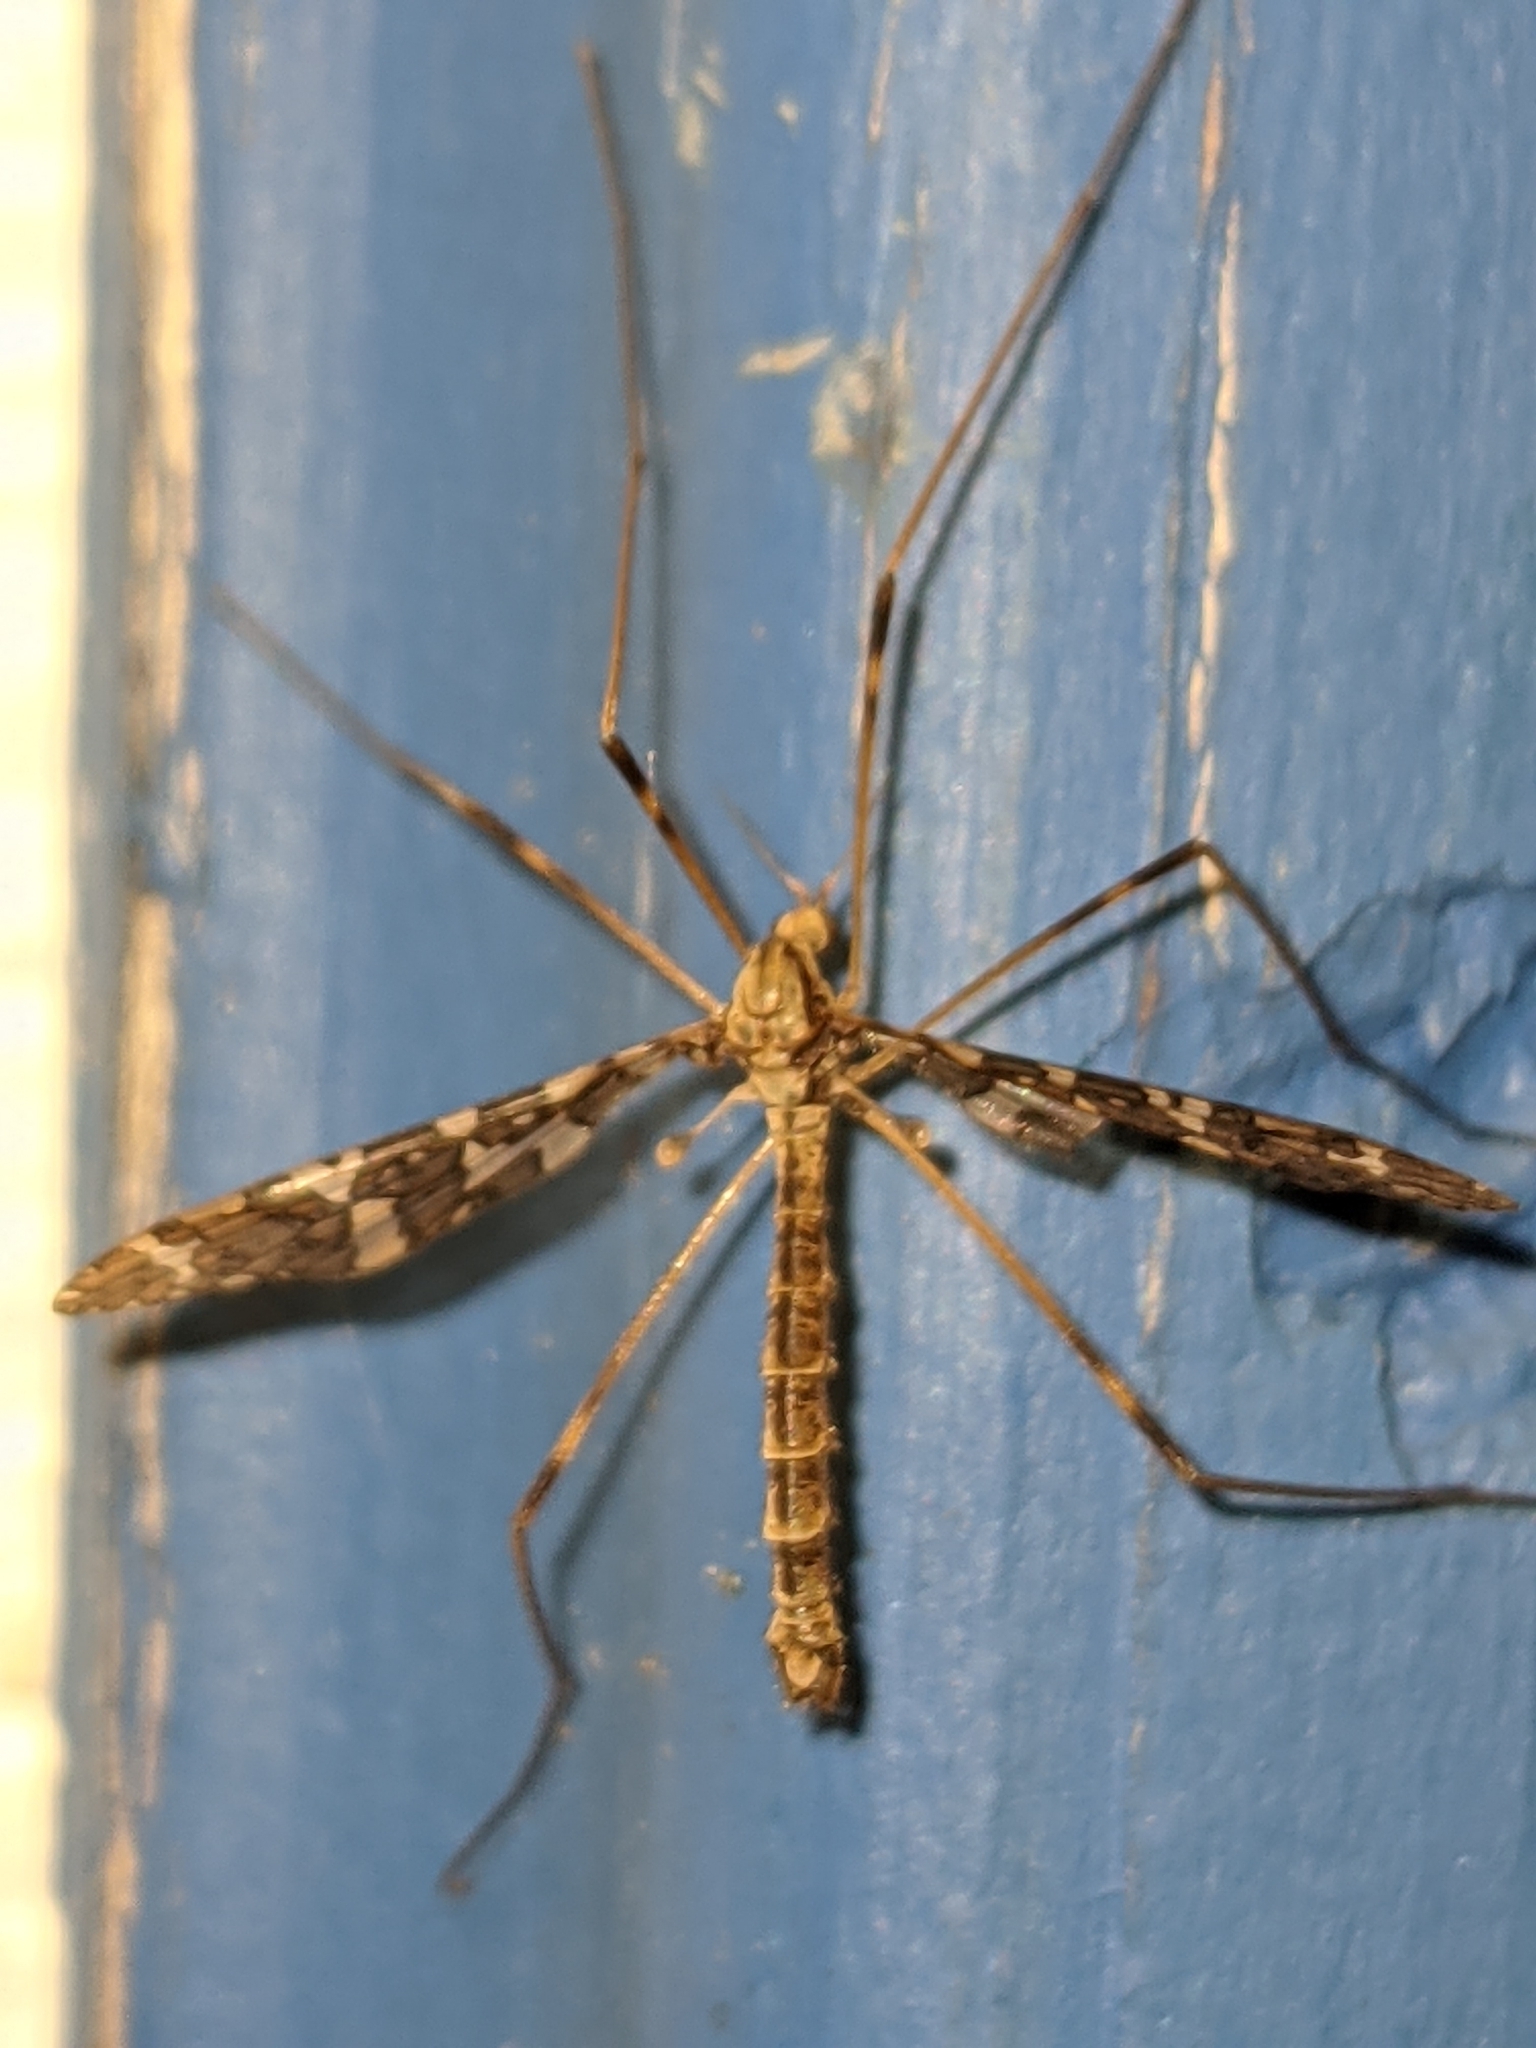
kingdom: Animalia
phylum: Arthropoda
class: Insecta
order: Diptera
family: Limoniidae
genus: Epiphragma
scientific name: Epiphragma fasciapenne
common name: Band-winged crane fly
